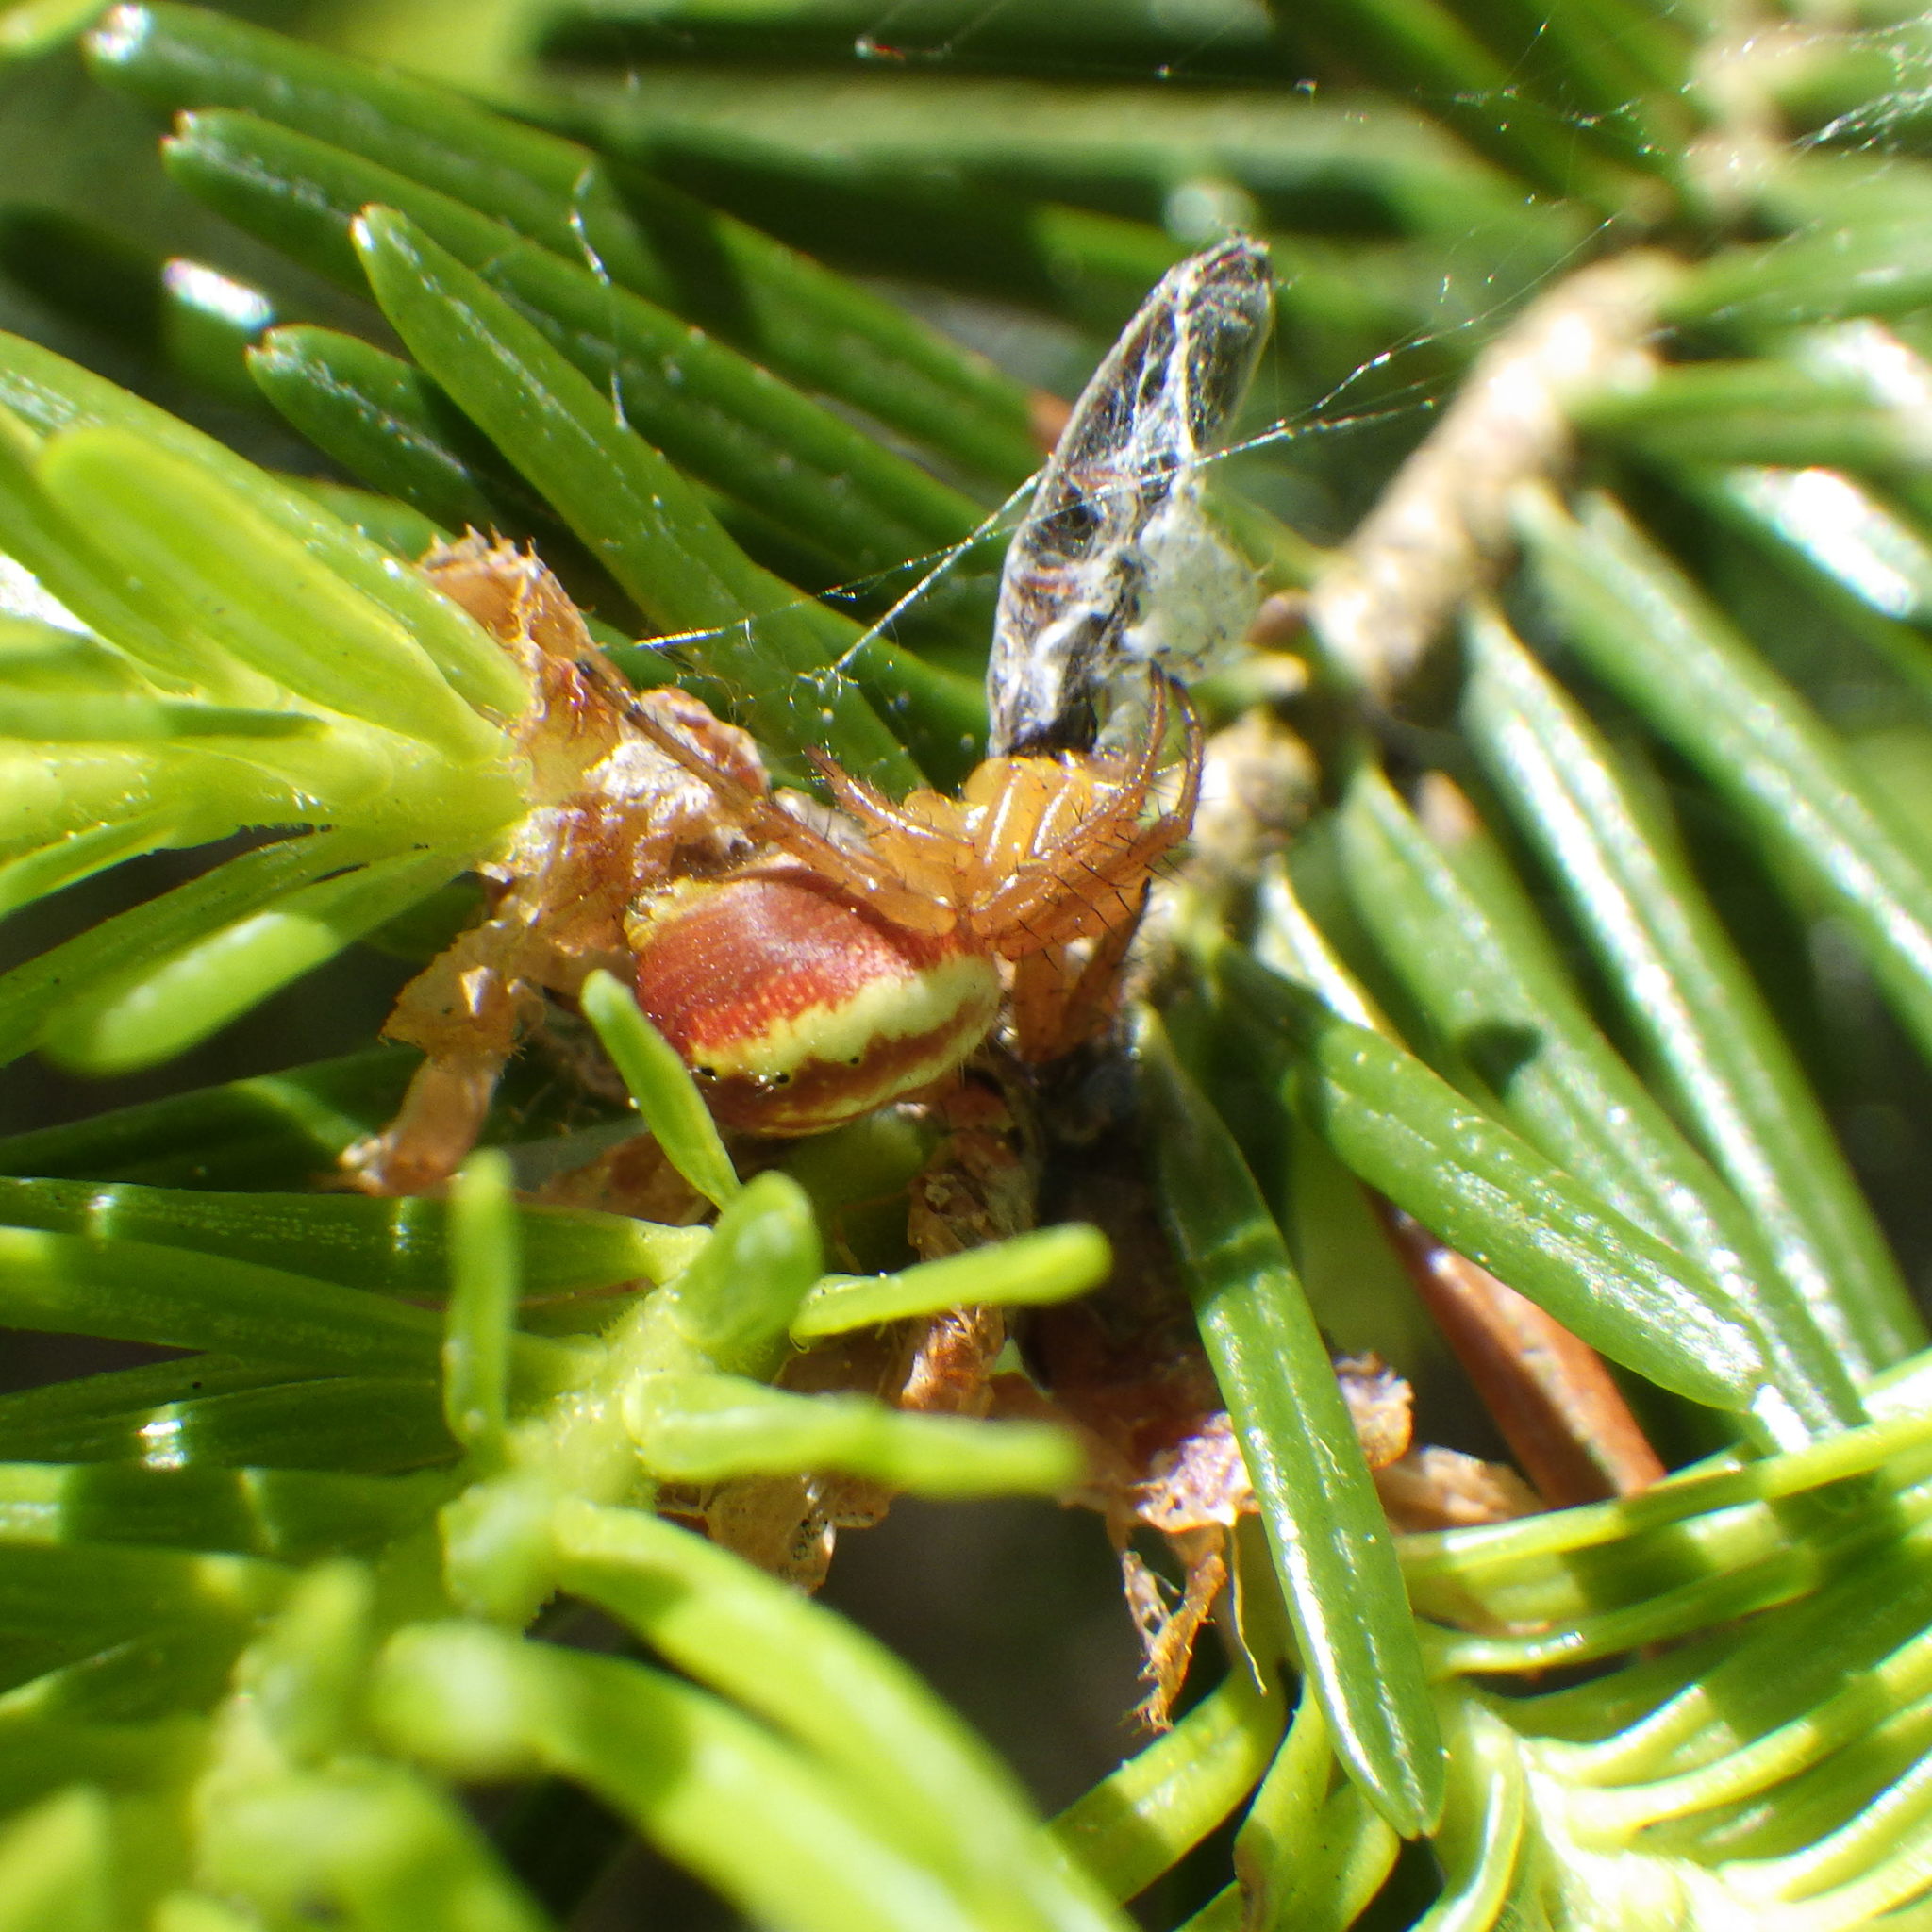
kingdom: Animalia
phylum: Arthropoda
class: Arachnida
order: Araneae
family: Araneidae
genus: Araniella
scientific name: Araniella displicata
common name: Sixspotted orb weaver
